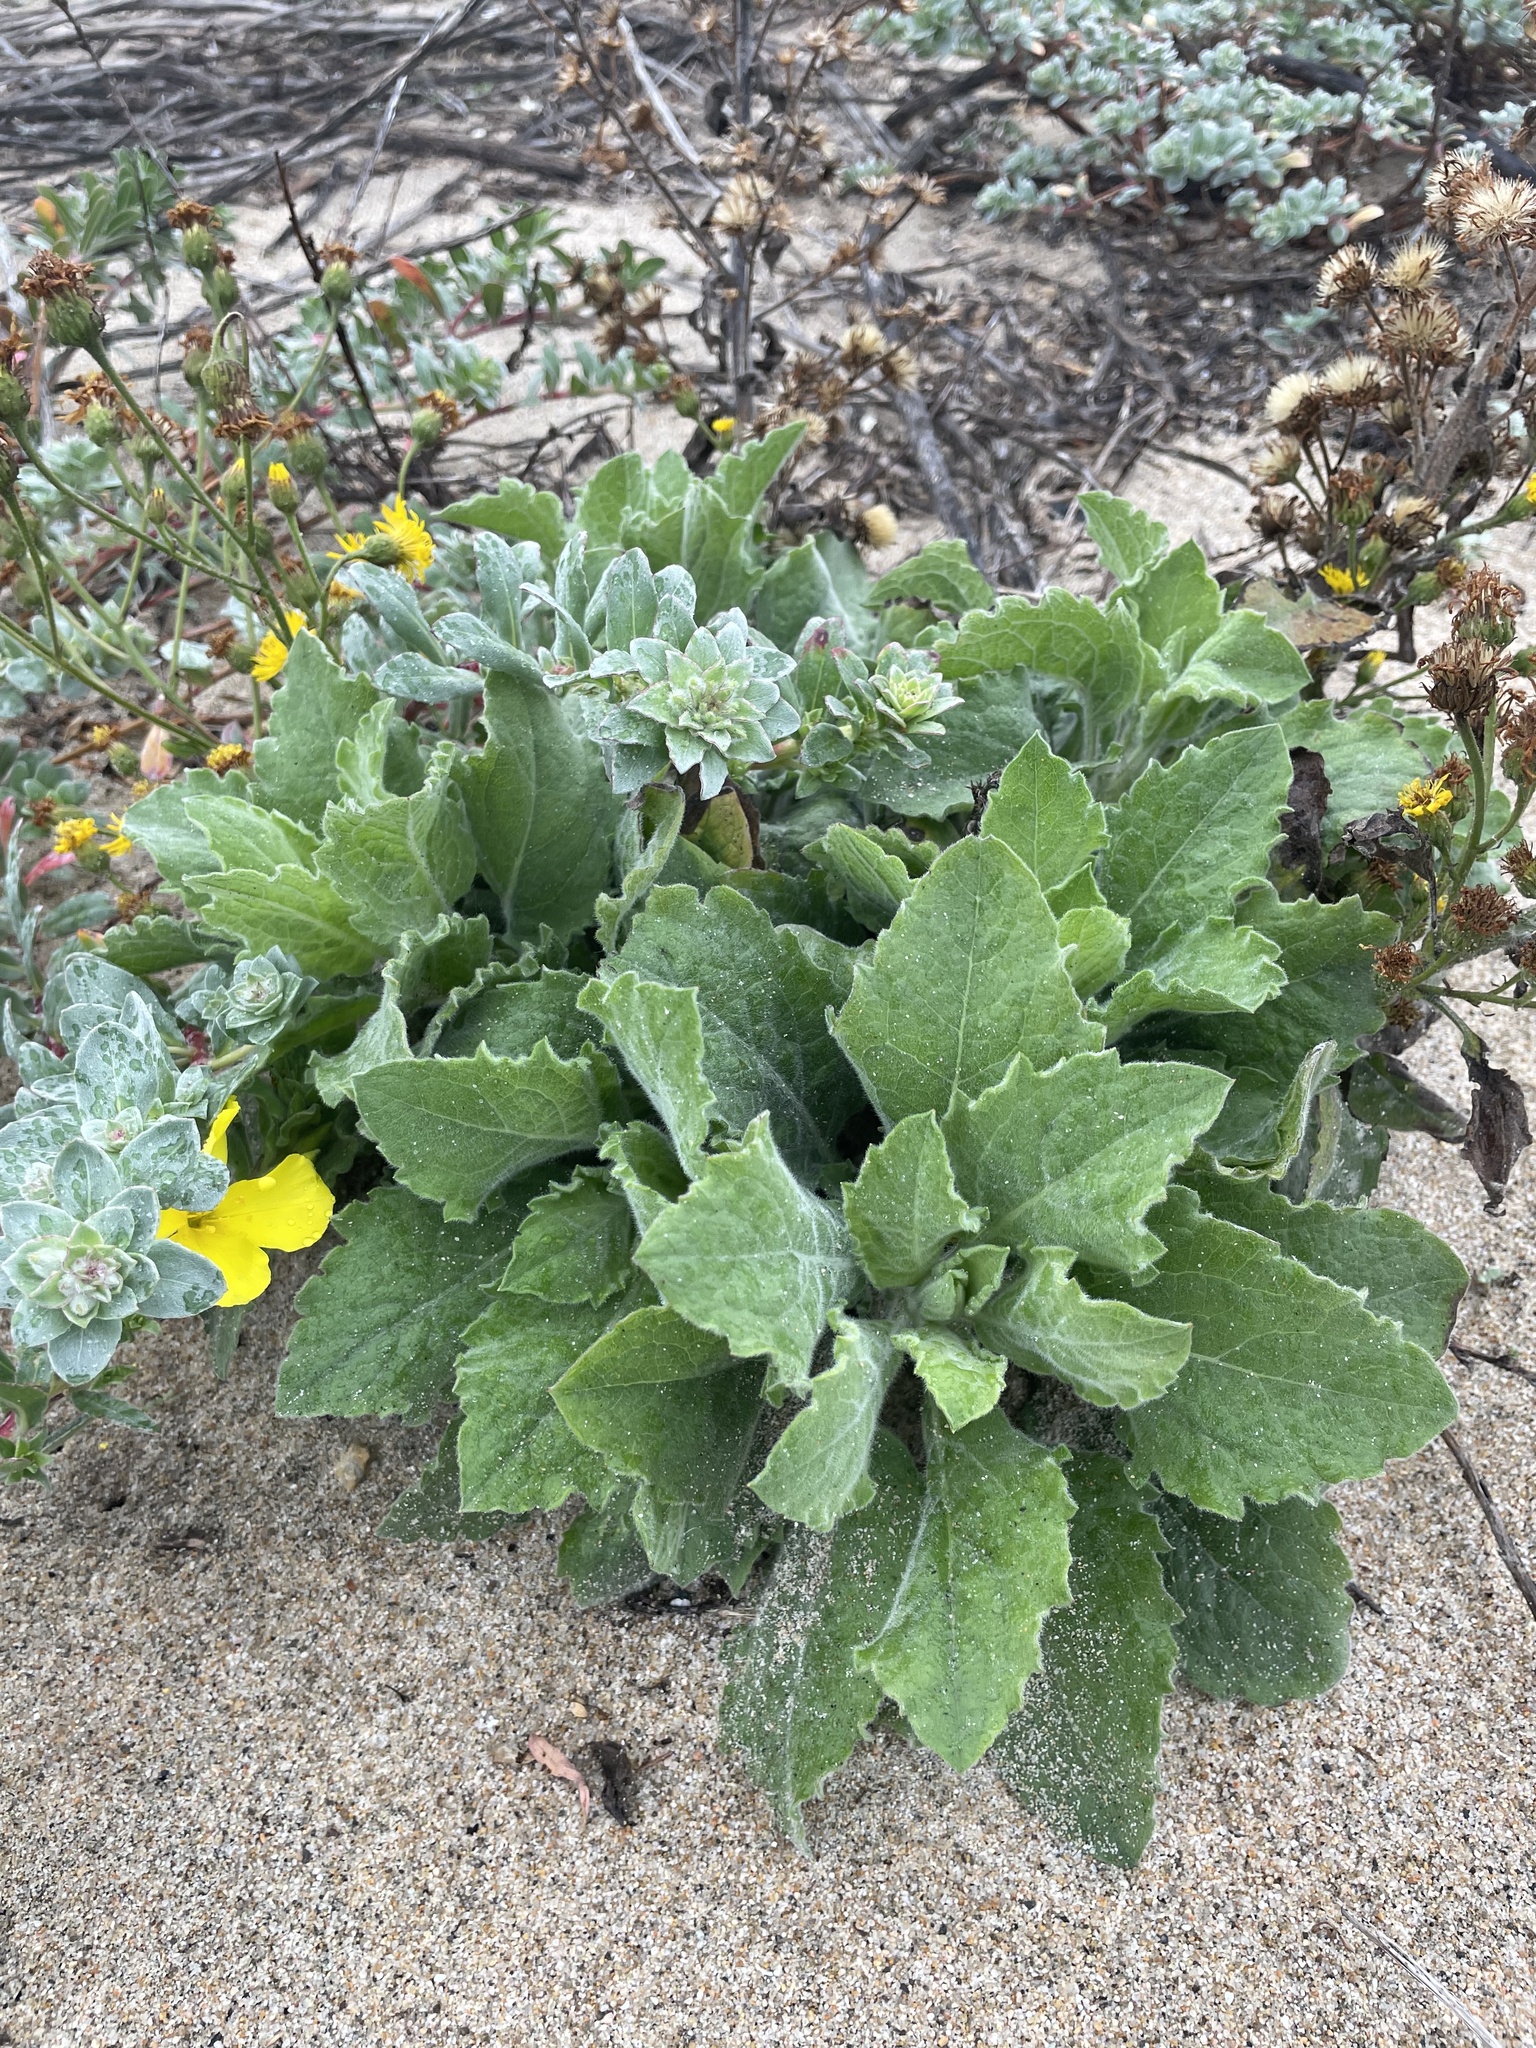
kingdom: Plantae
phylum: Tracheophyta
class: Magnoliopsida
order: Asterales
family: Asteraceae
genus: Heterotheca
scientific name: Heterotheca grandiflora
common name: Telegraphweed
